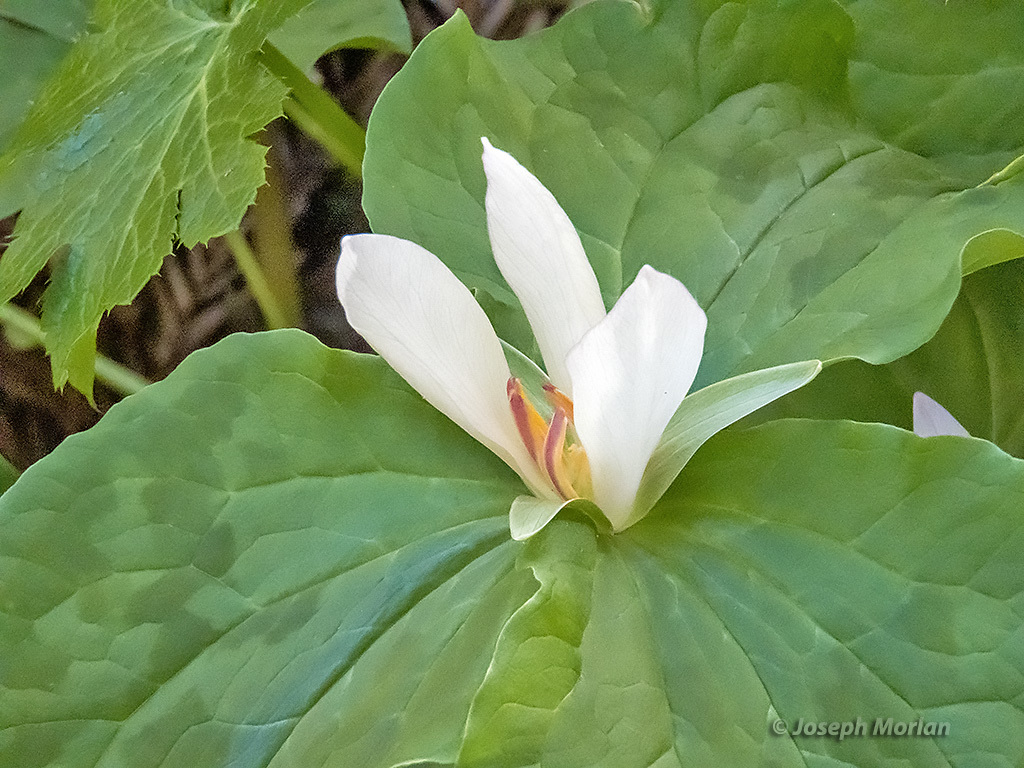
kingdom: Plantae
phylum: Tracheophyta
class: Liliopsida
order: Liliales
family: Melanthiaceae
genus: Trillium
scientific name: Trillium chloropetalum
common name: Giant trillium
